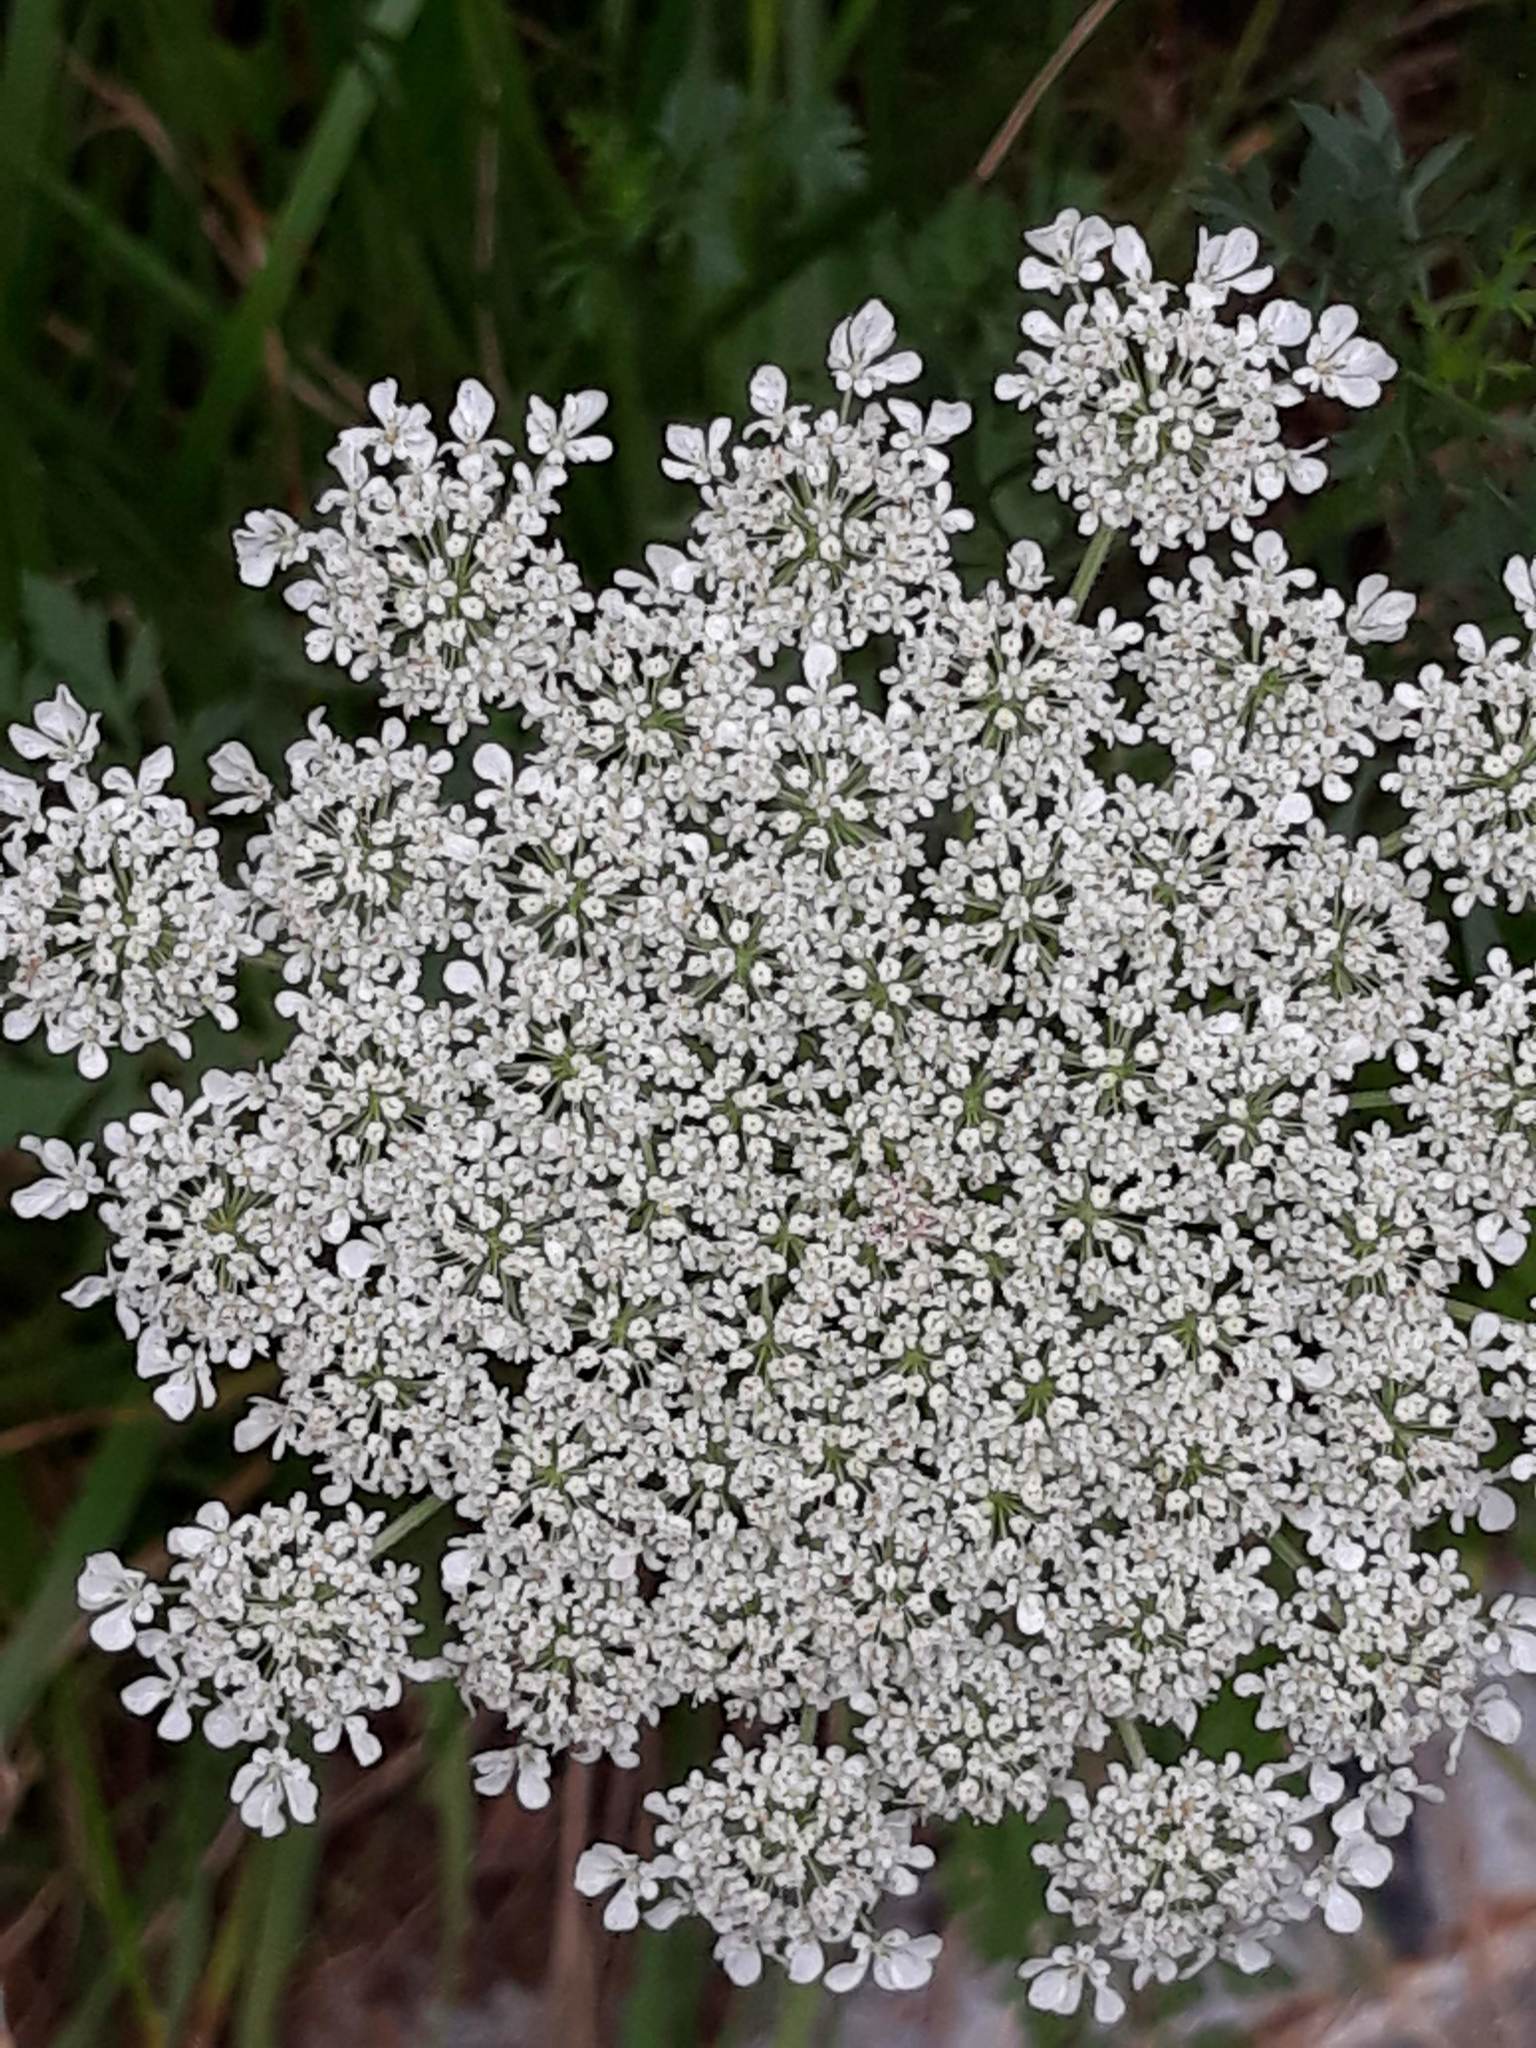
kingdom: Plantae
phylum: Tracheophyta
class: Magnoliopsida
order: Apiales
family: Apiaceae
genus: Daucus
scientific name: Daucus carota
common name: Wild carrot
